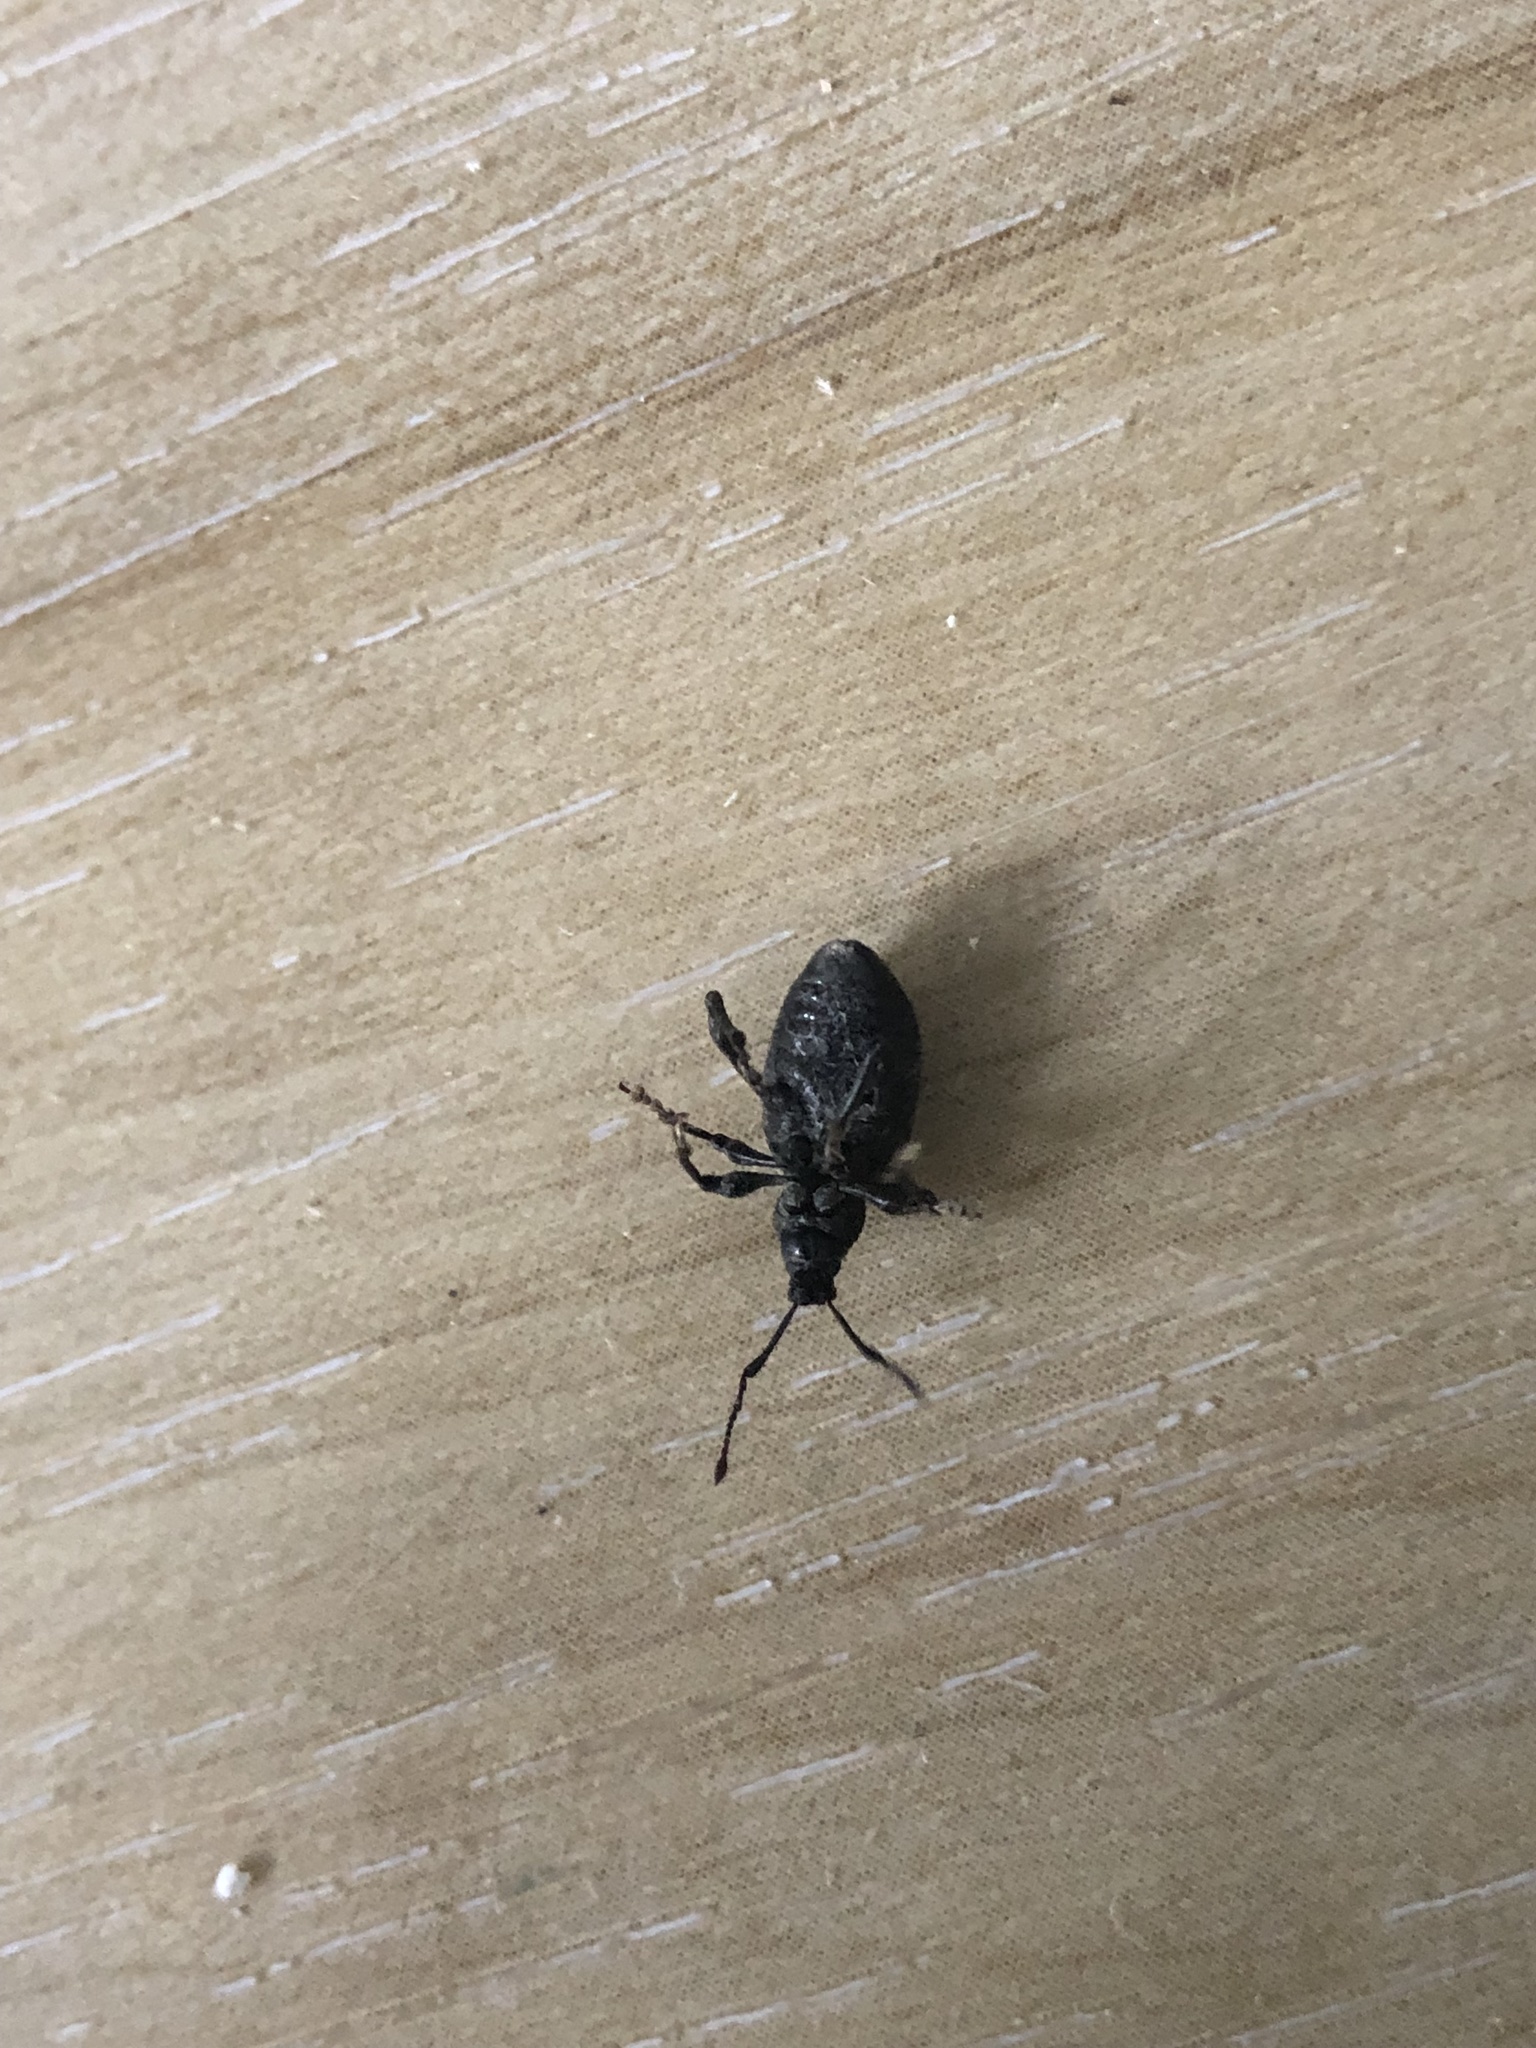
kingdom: Animalia
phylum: Arthropoda
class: Insecta
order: Coleoptera
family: Curculionidae
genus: Otiorhynchus
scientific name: Otiorhynchus sulcatus
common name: Black vine weevil
